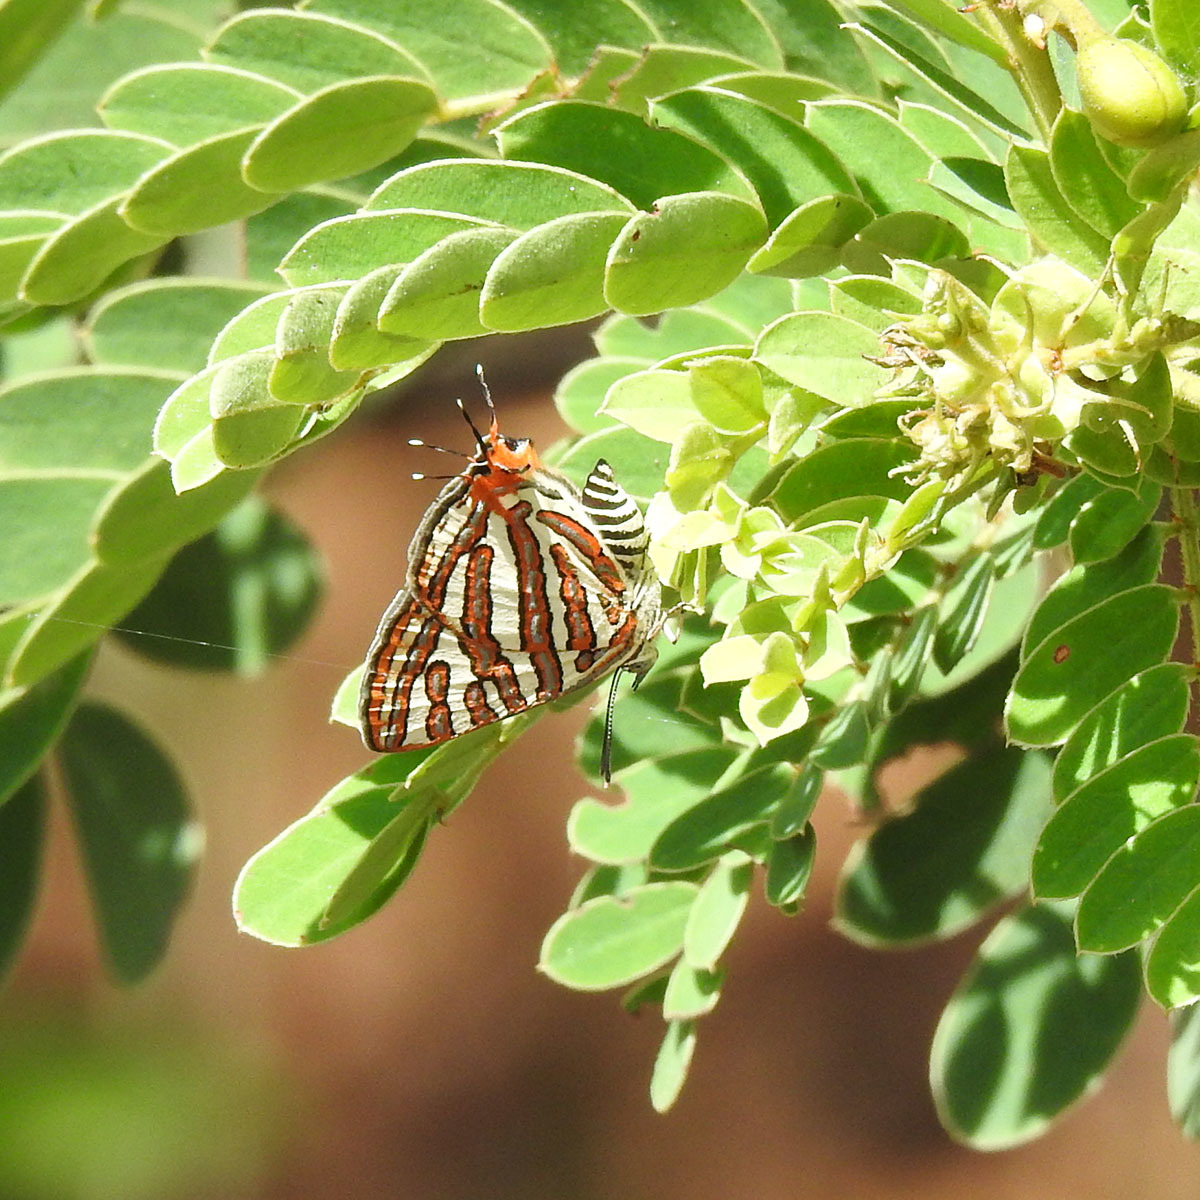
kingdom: Animalia
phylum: Arthropoda
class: Insecta
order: Lepidoptera
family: Lycaenidae
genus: Cigaritis
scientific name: Cigaritis vulcanus
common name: Common silverline
